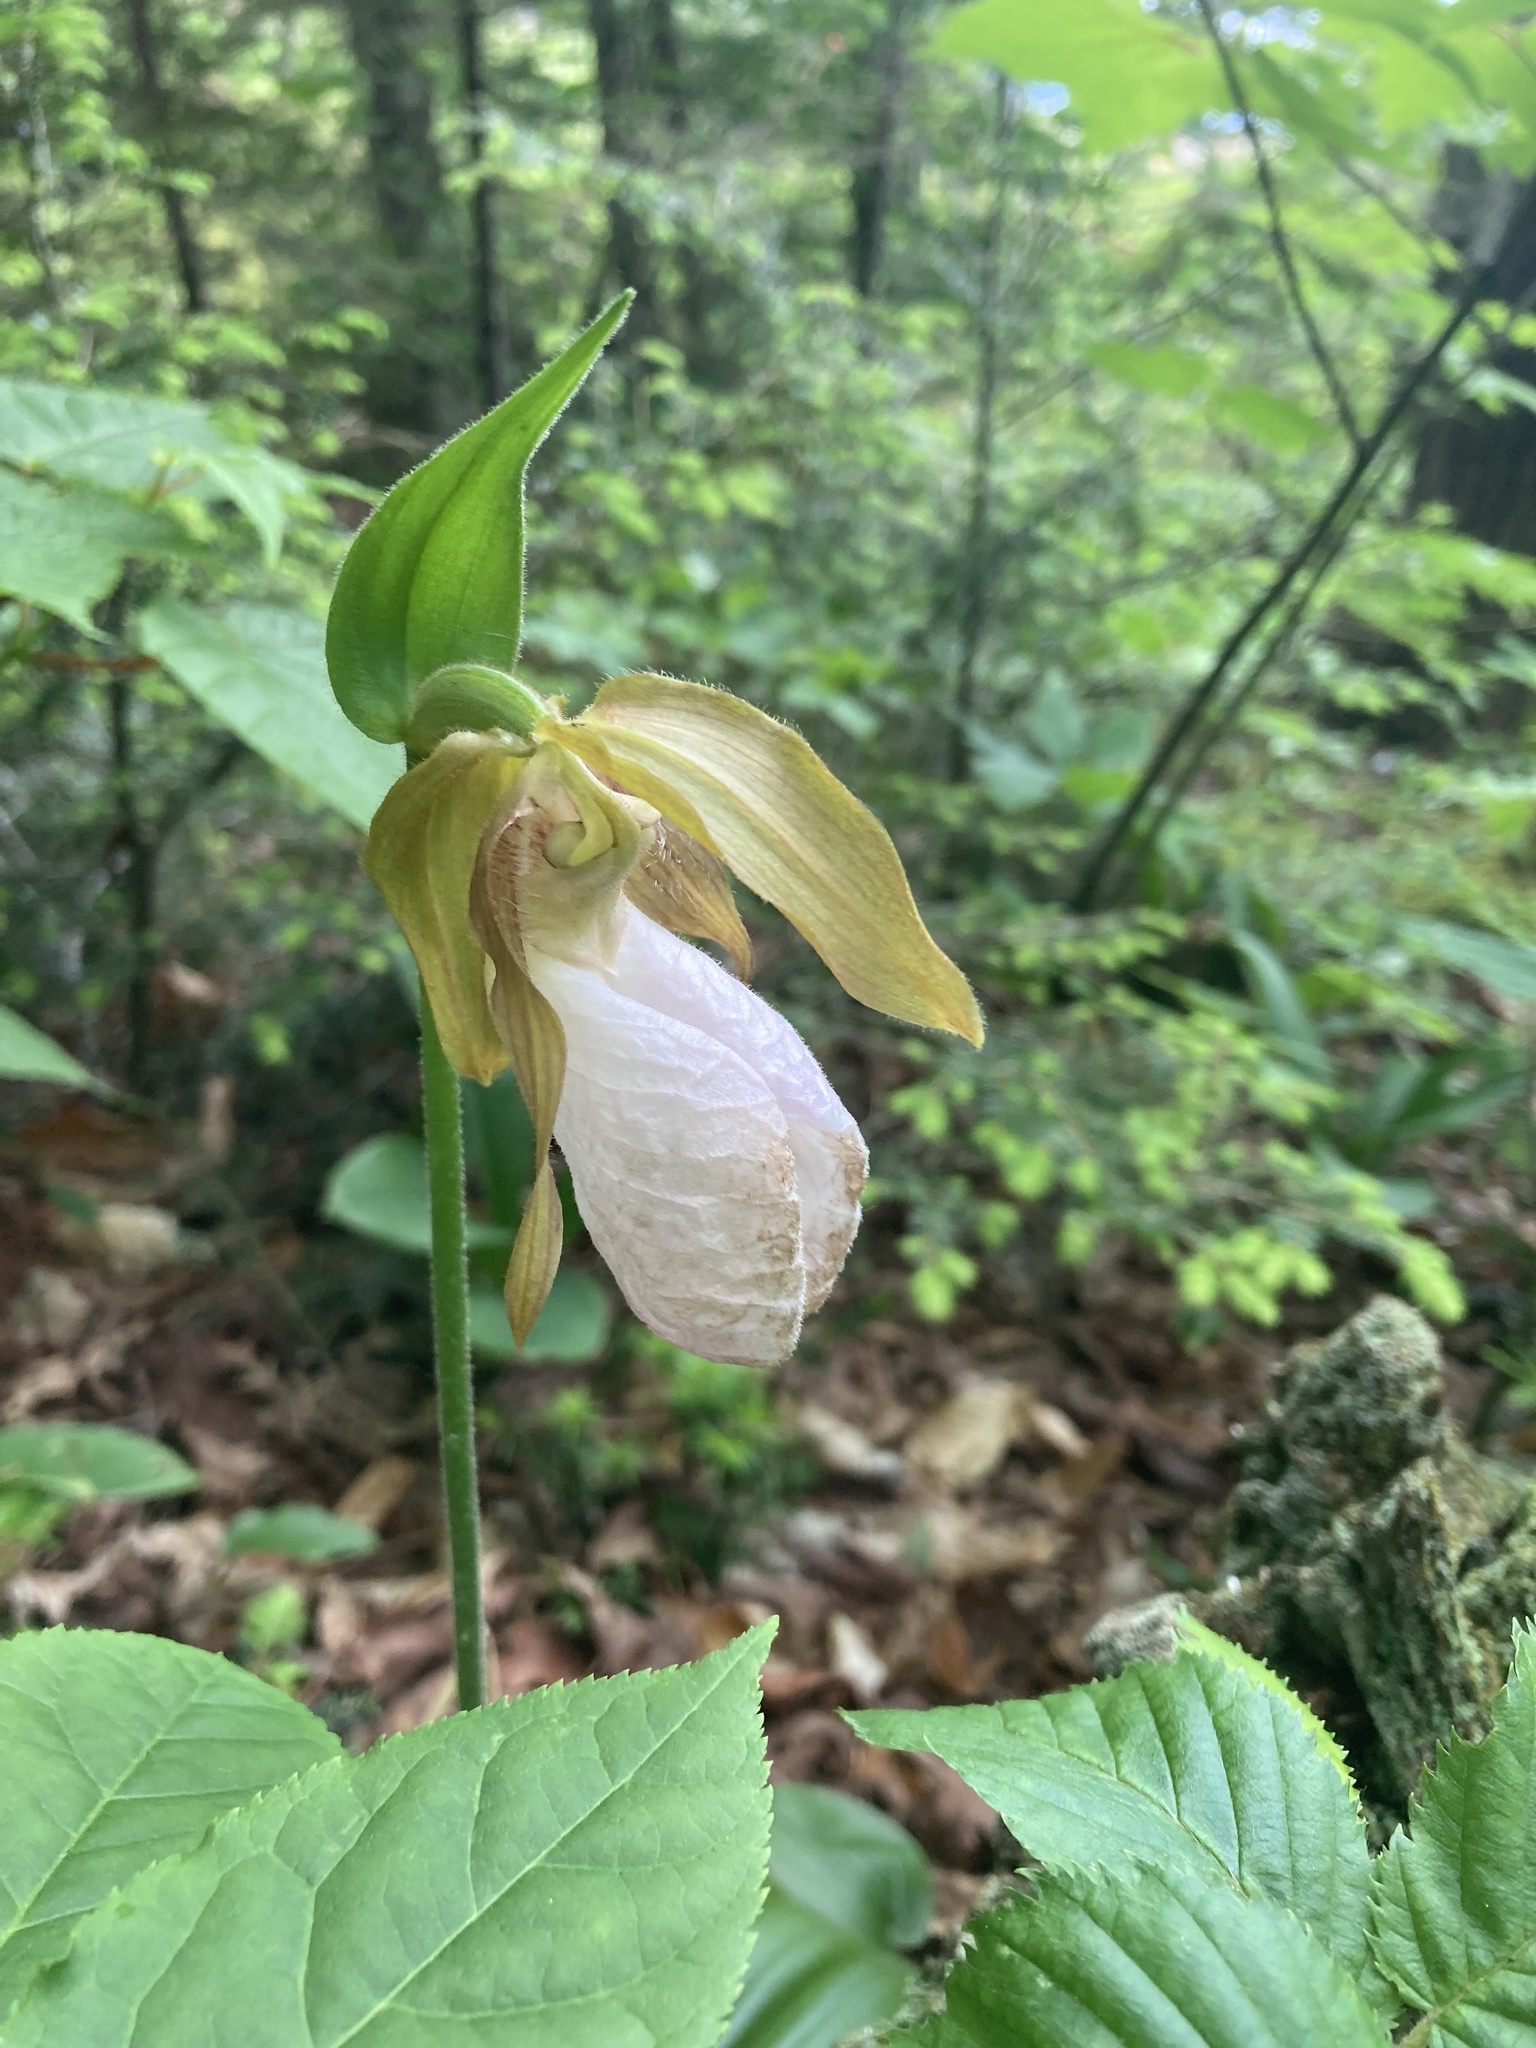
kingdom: Plantae
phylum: Tracheophyta
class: Liliopsida
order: Asparagales
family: Orchidaceae
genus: Cypripedium
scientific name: Cypripedium acaule
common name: Pink lady's-slipper
